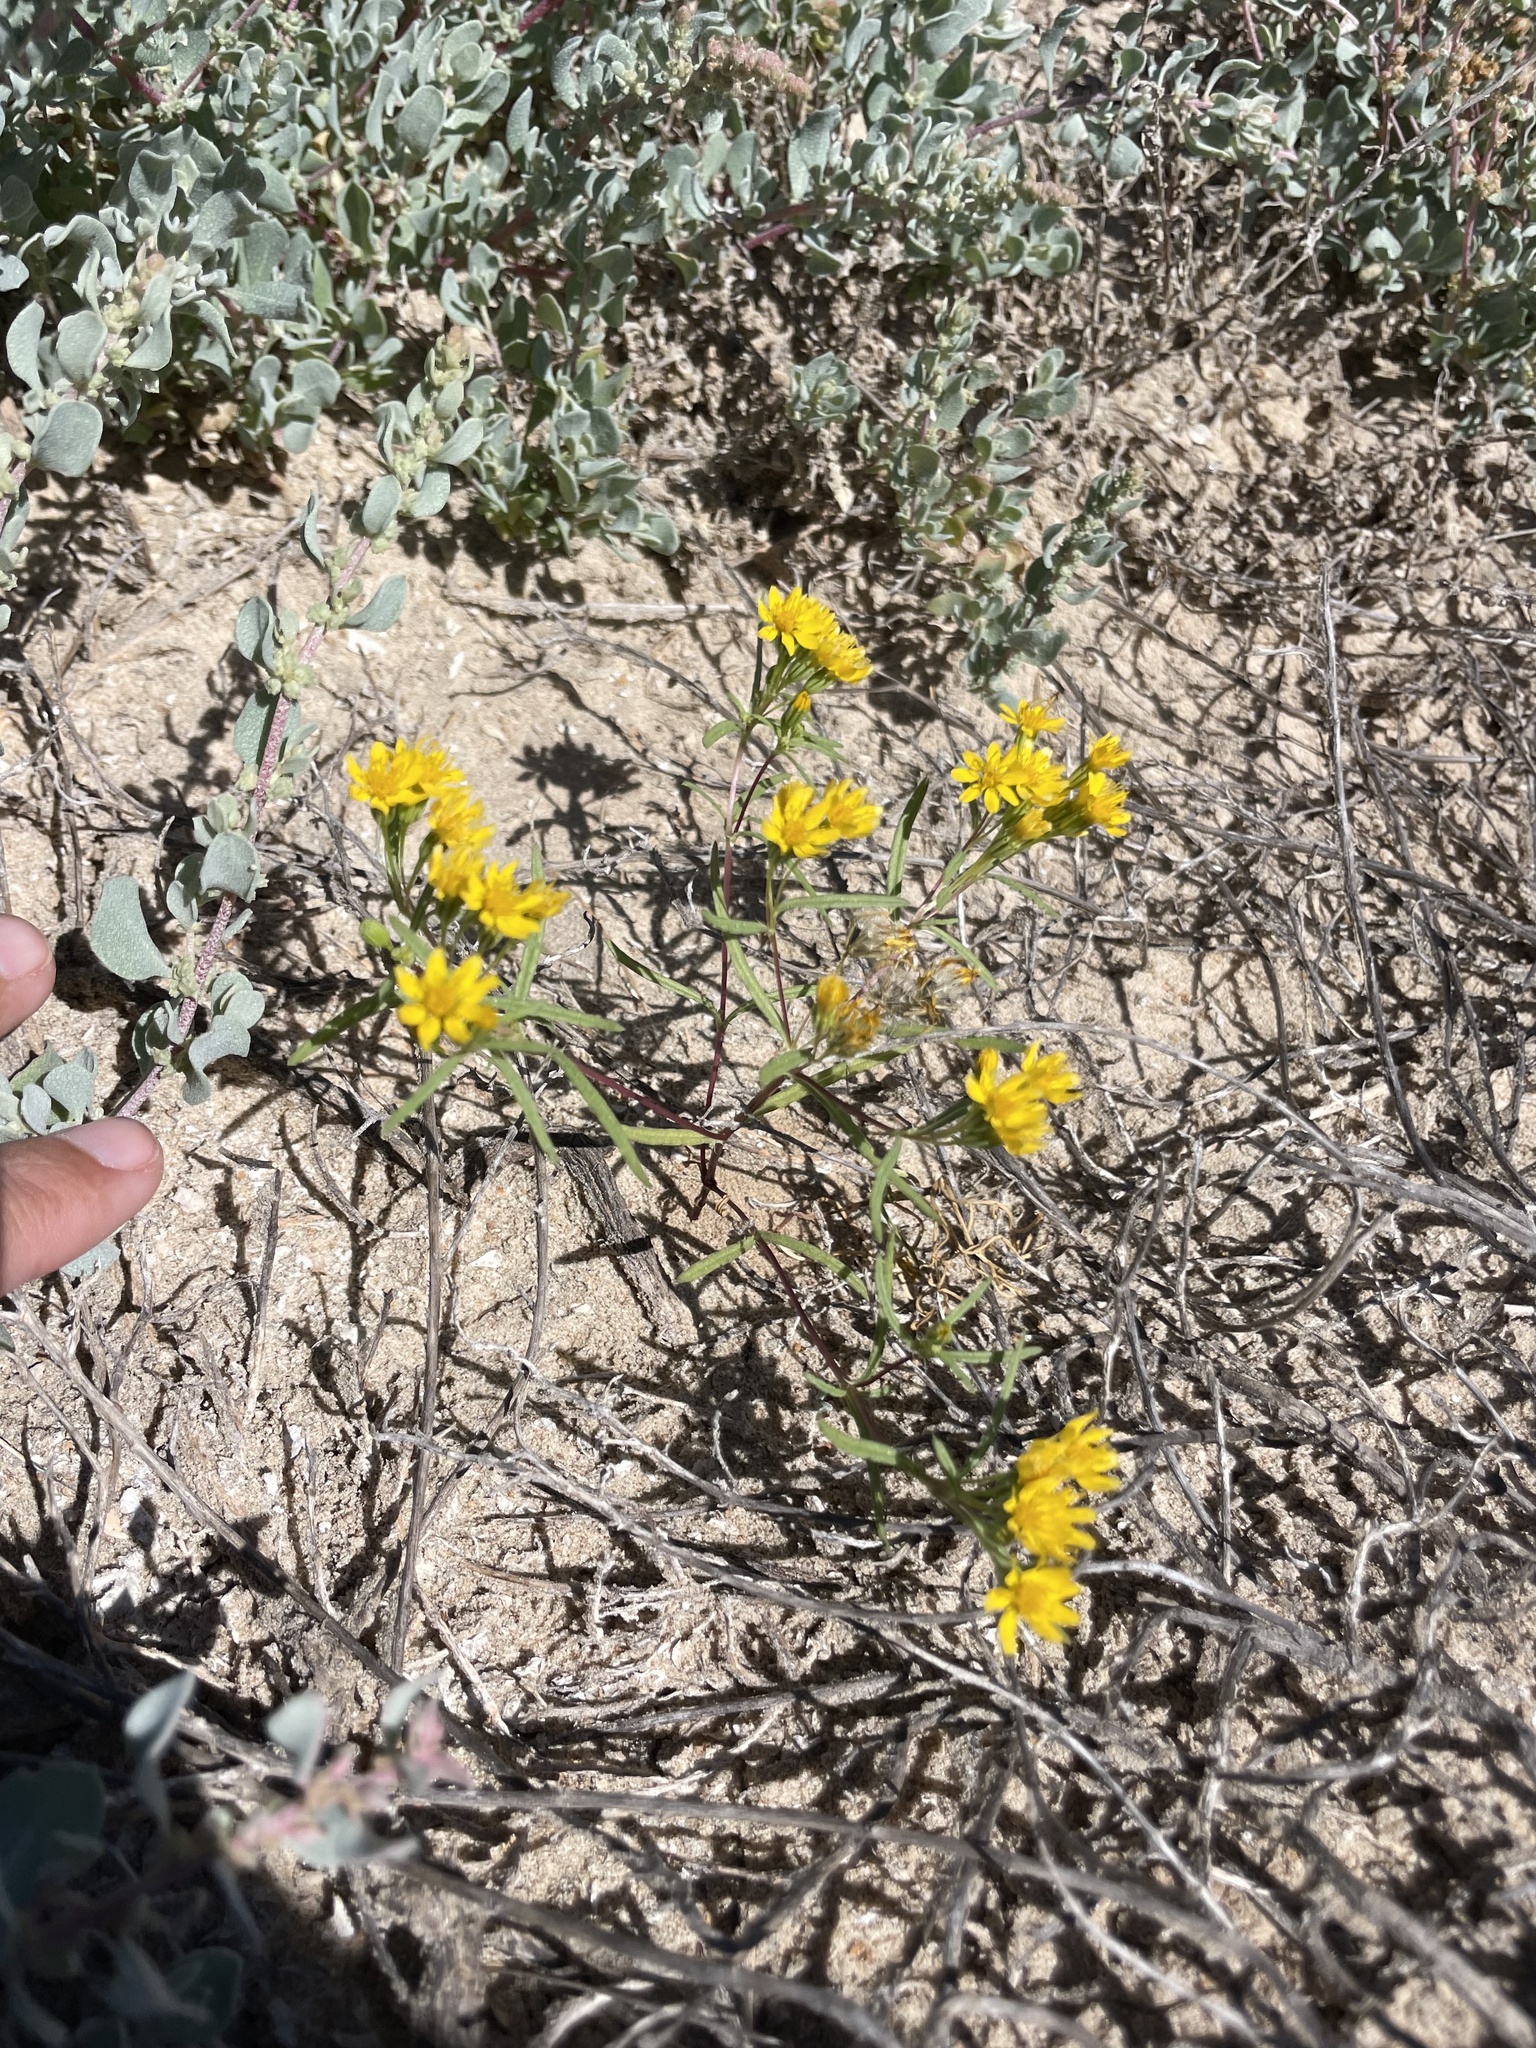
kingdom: Plantae
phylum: Tracheophyta
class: Magnoliopsida
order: Asterales
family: Asteraceae
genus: Pectis
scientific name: Pectis papposa
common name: Many-bristle chinchweed
